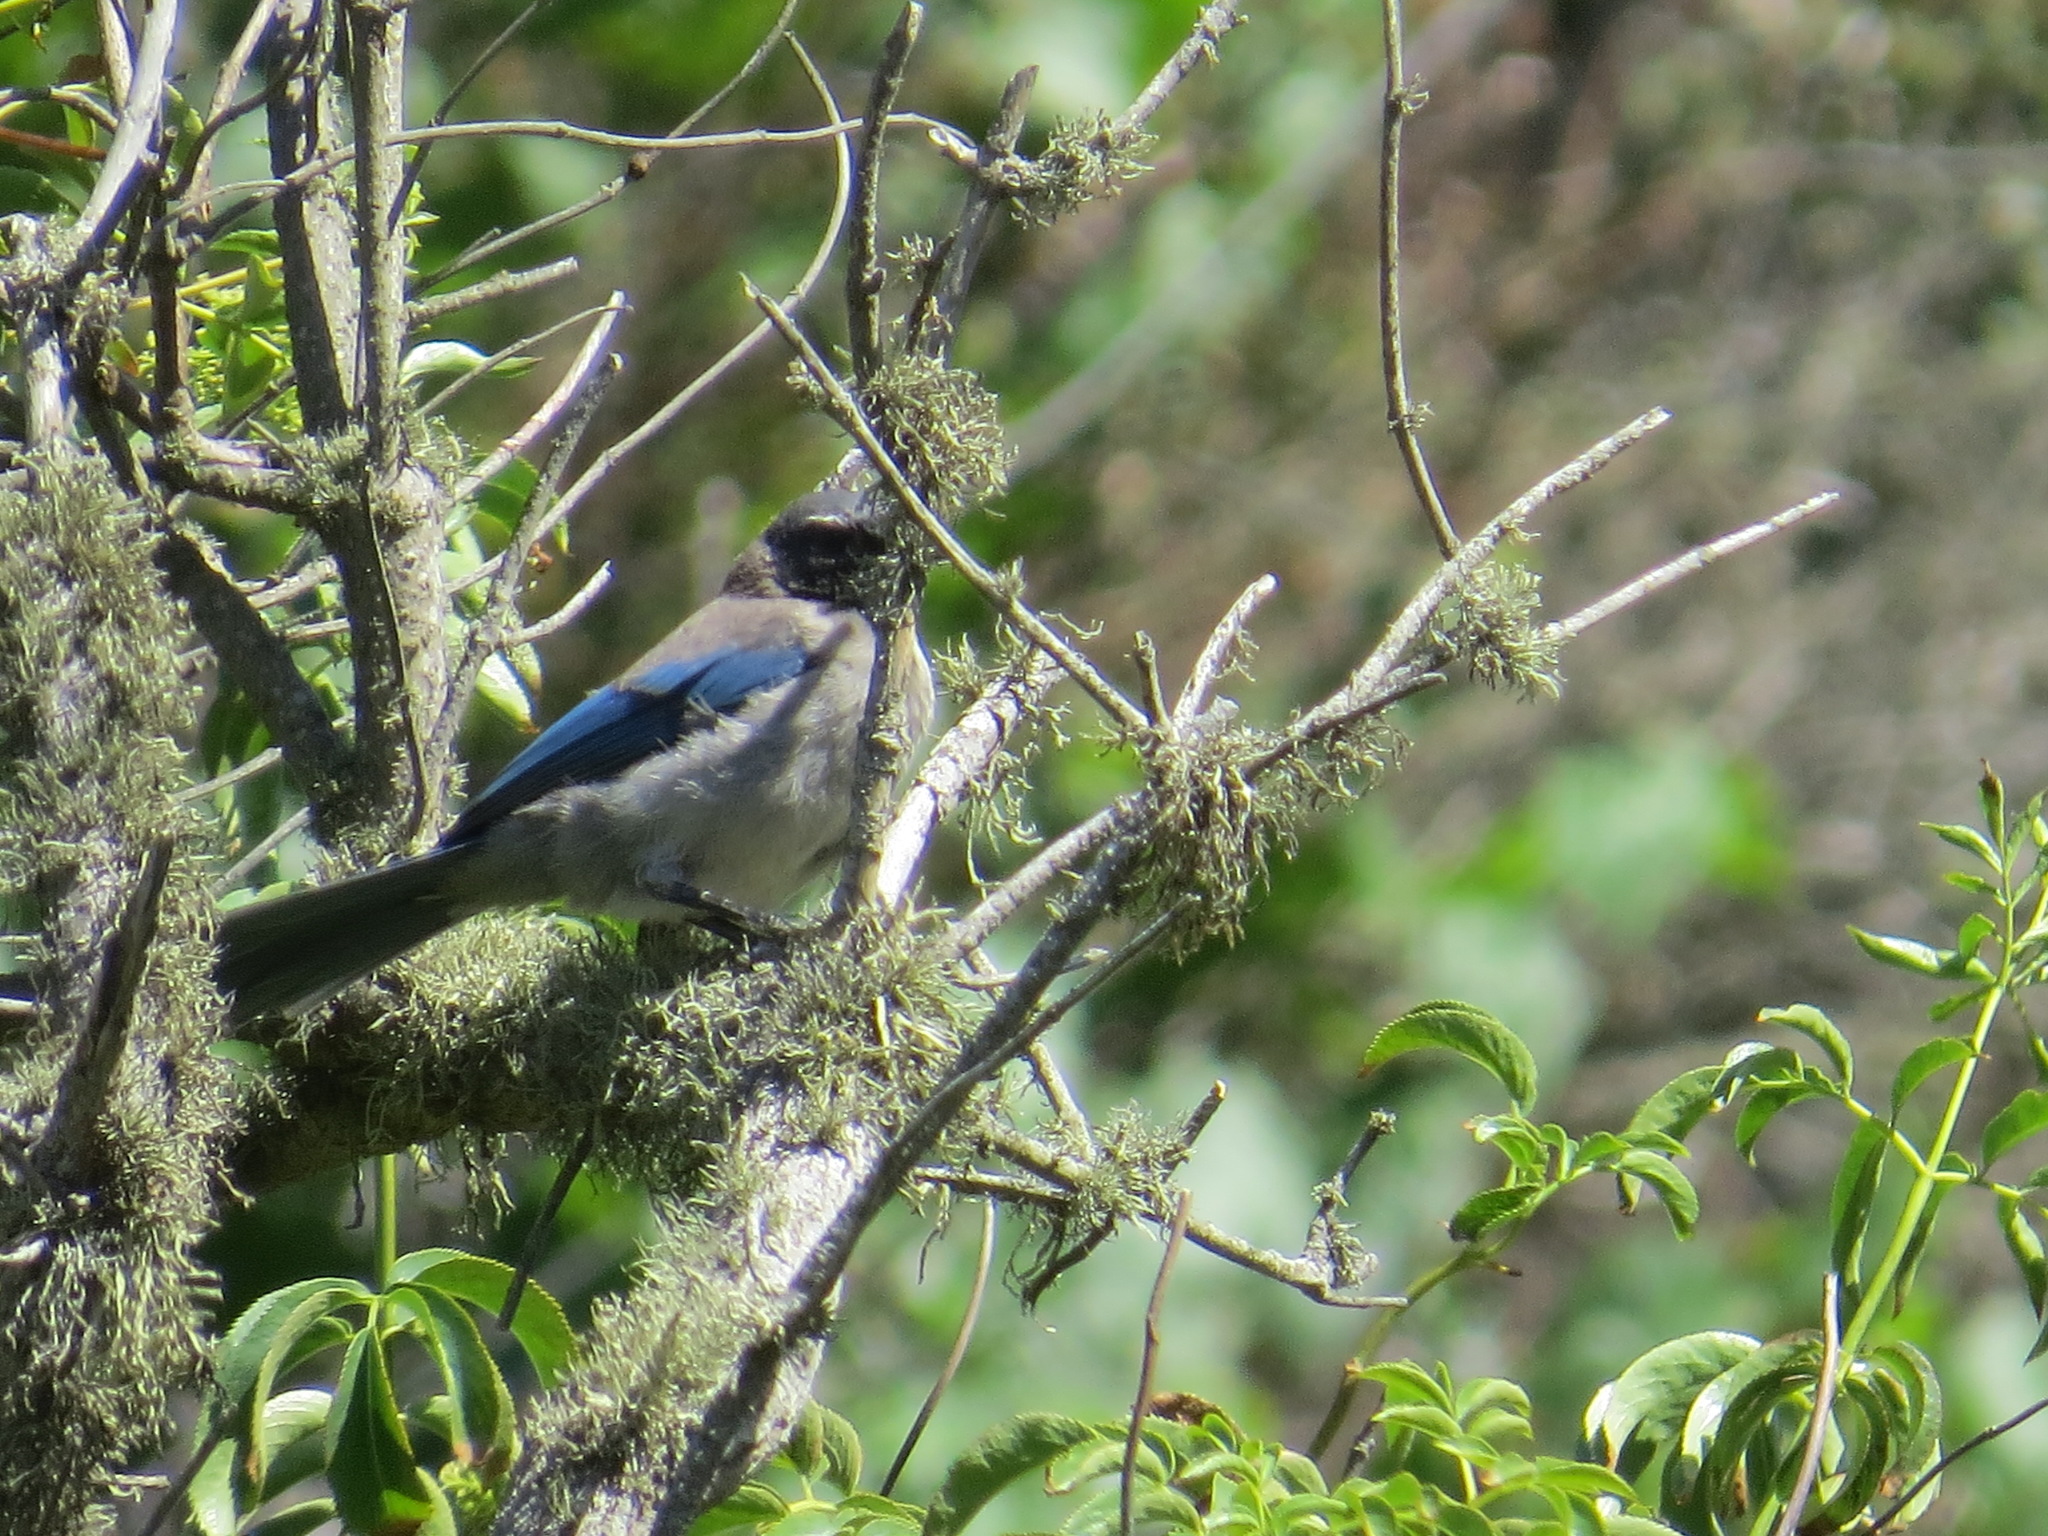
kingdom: Animalia
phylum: Chordata
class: Aves
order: Passeriformes
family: Corvidae
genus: Aphelocoma
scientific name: Aphelocoma californica
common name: California scrub-jay
